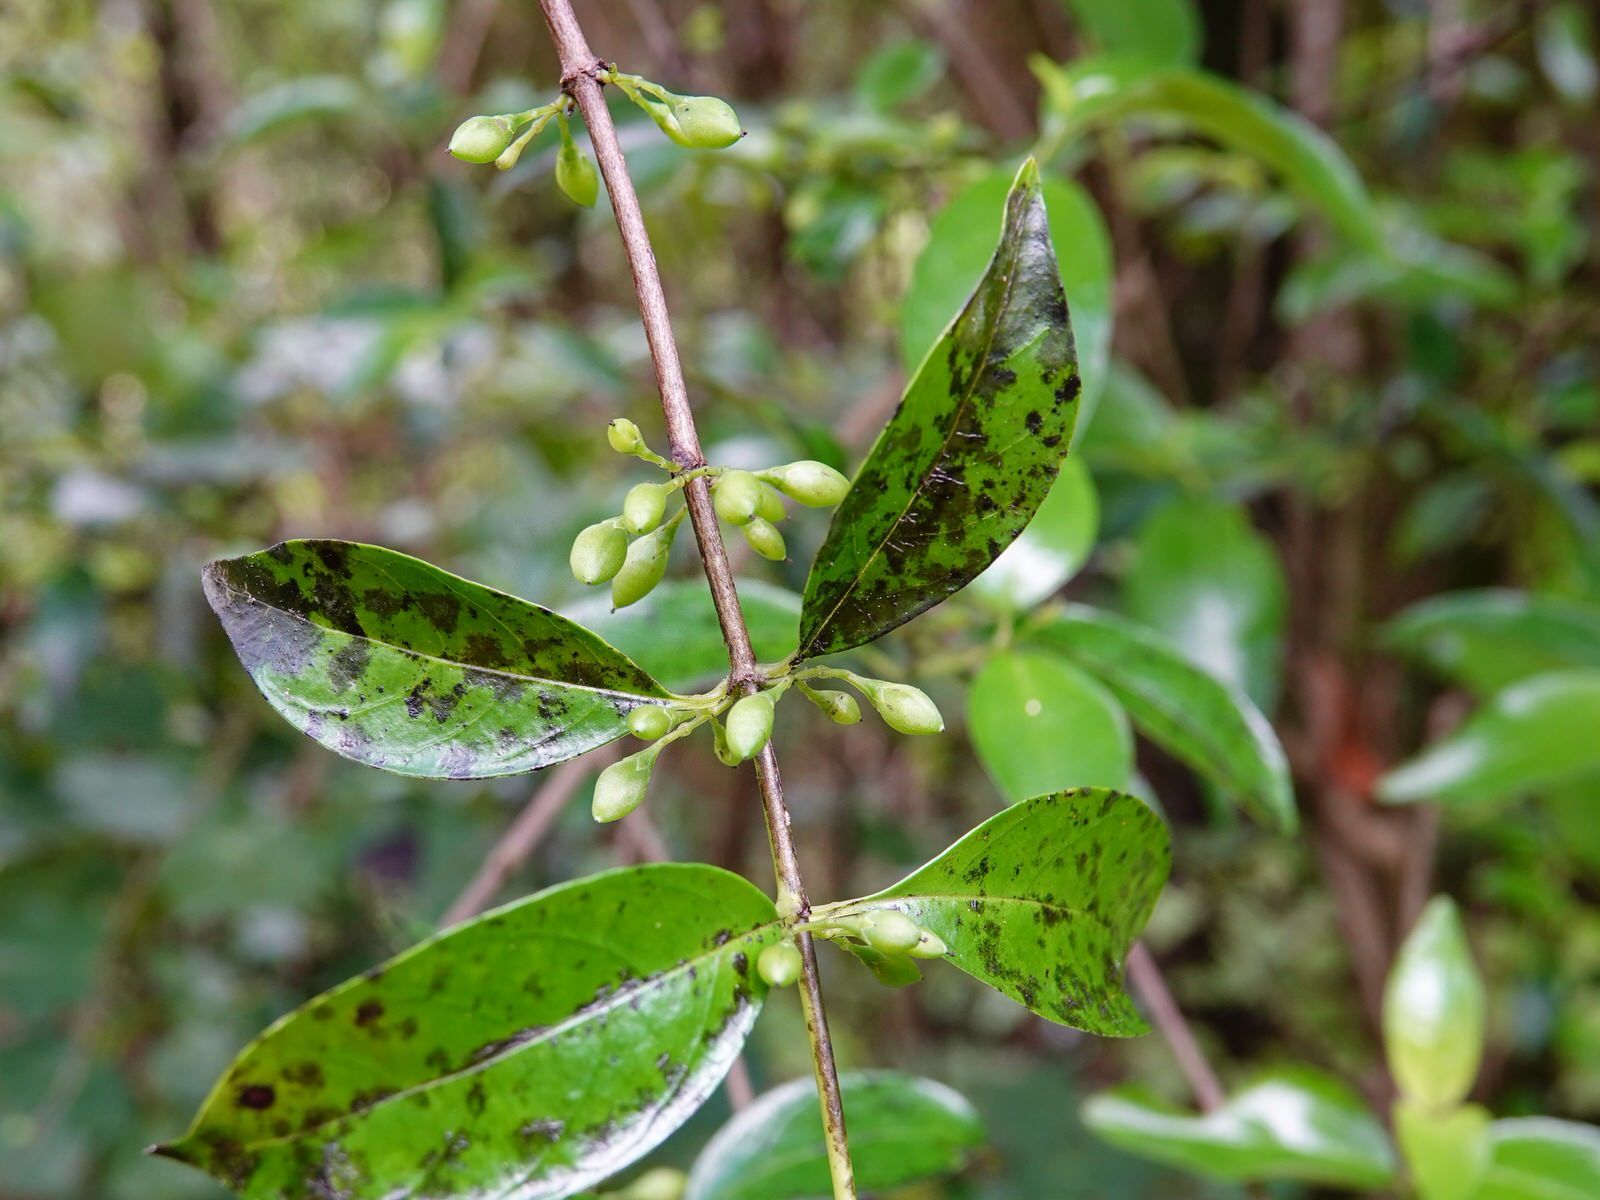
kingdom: Plantae
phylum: Tracheophyta
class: Magnoliopsida
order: Gentianales
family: Loganiaceae
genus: Geniostoma
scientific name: Geniostoma ligustrifolium
